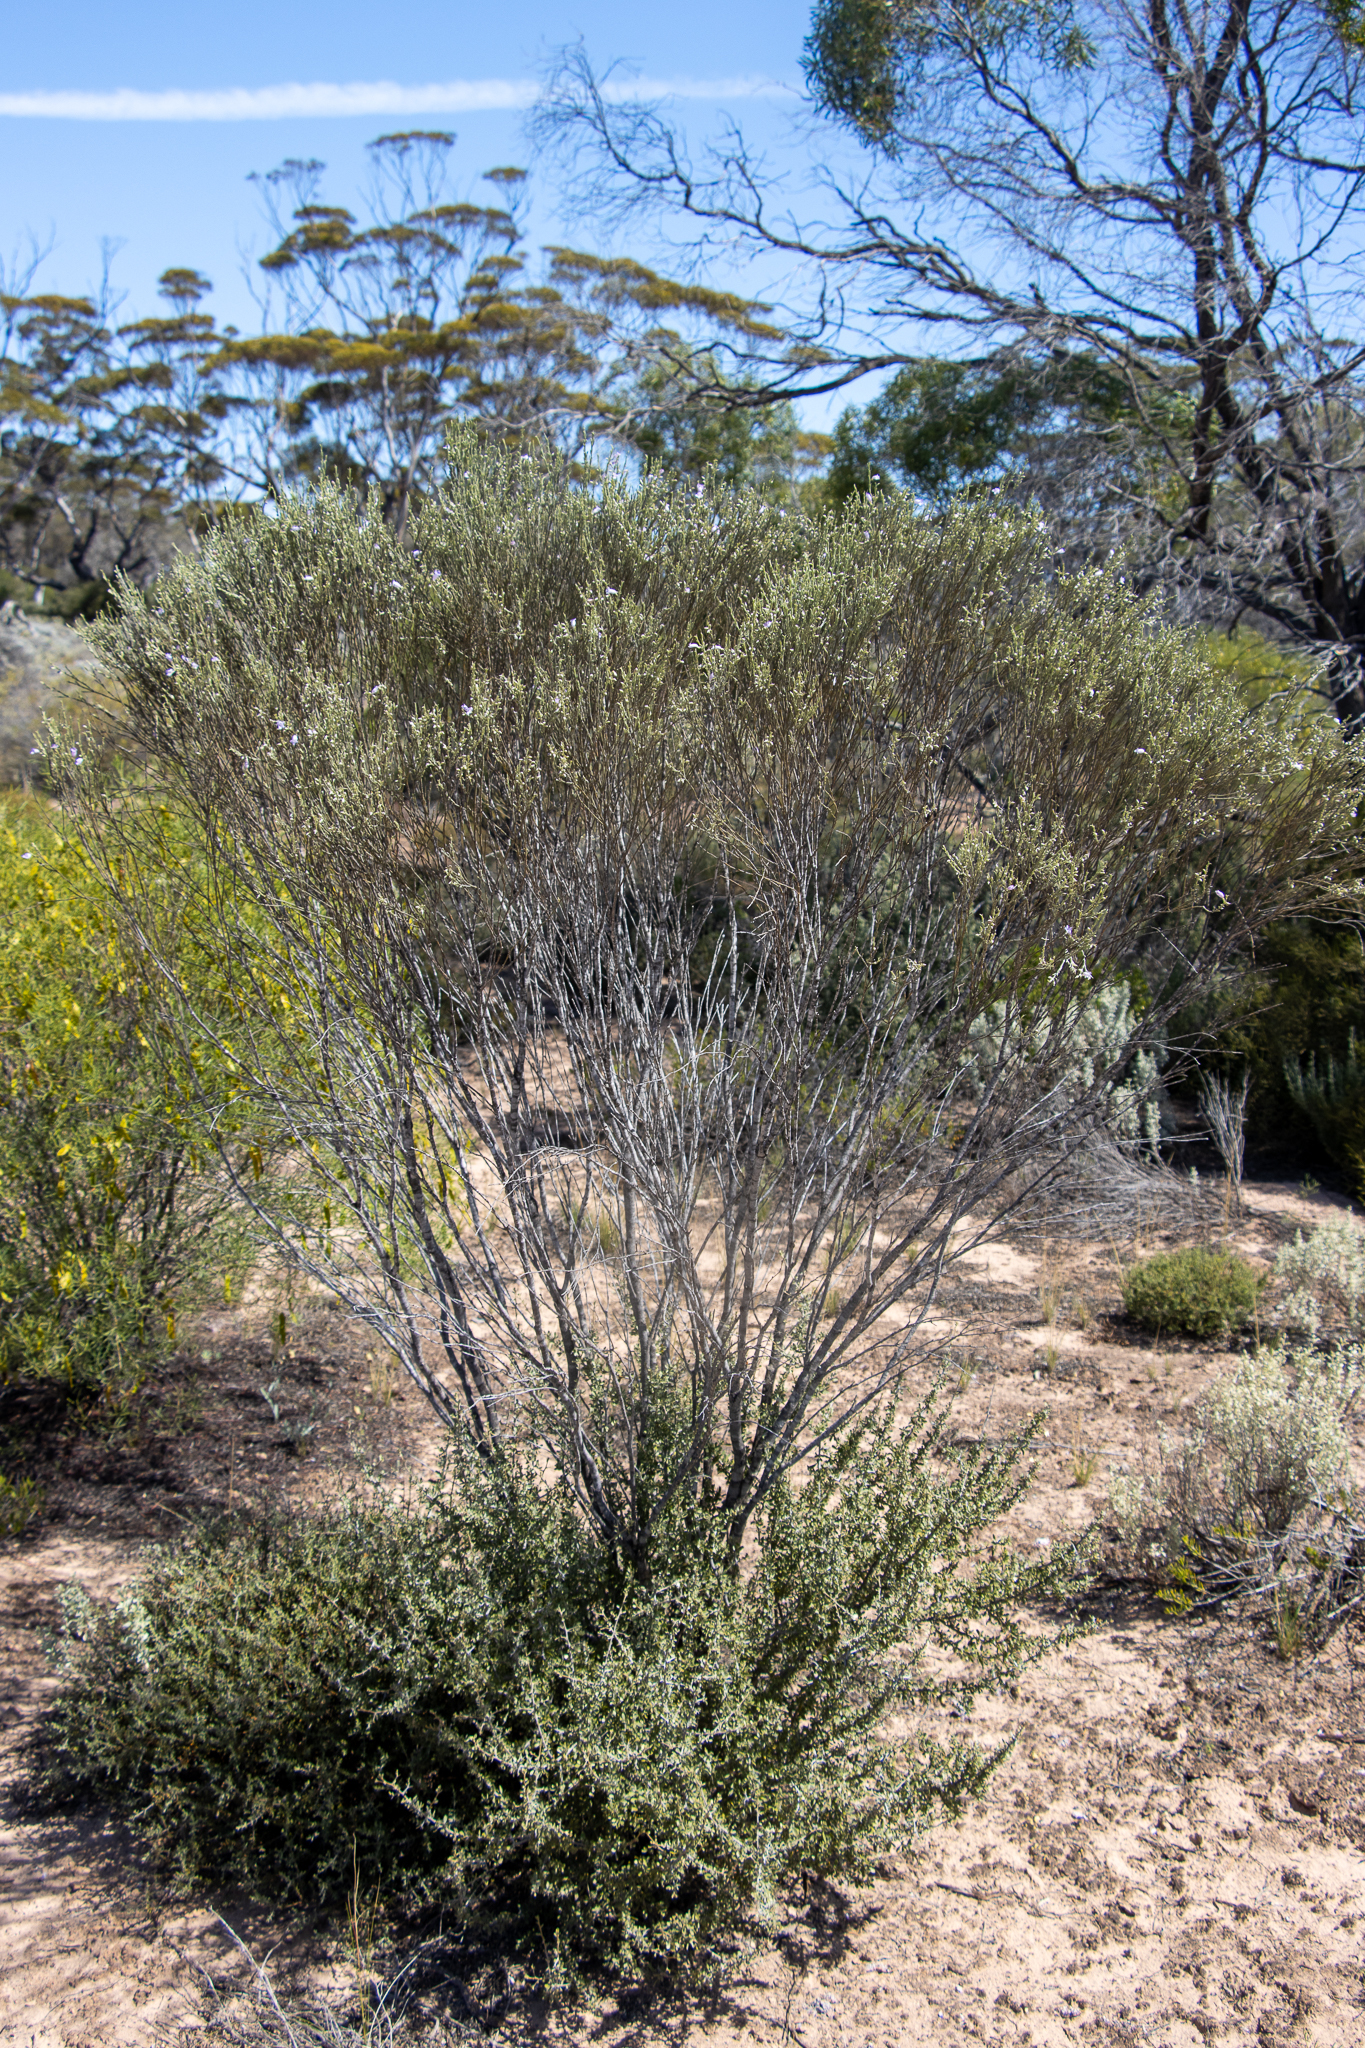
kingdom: Plantae
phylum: Tracheophyta
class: Magnoliopsida
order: Lamiales
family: Scrophulariaceae
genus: Eremophila
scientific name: Eremophila scoparia
